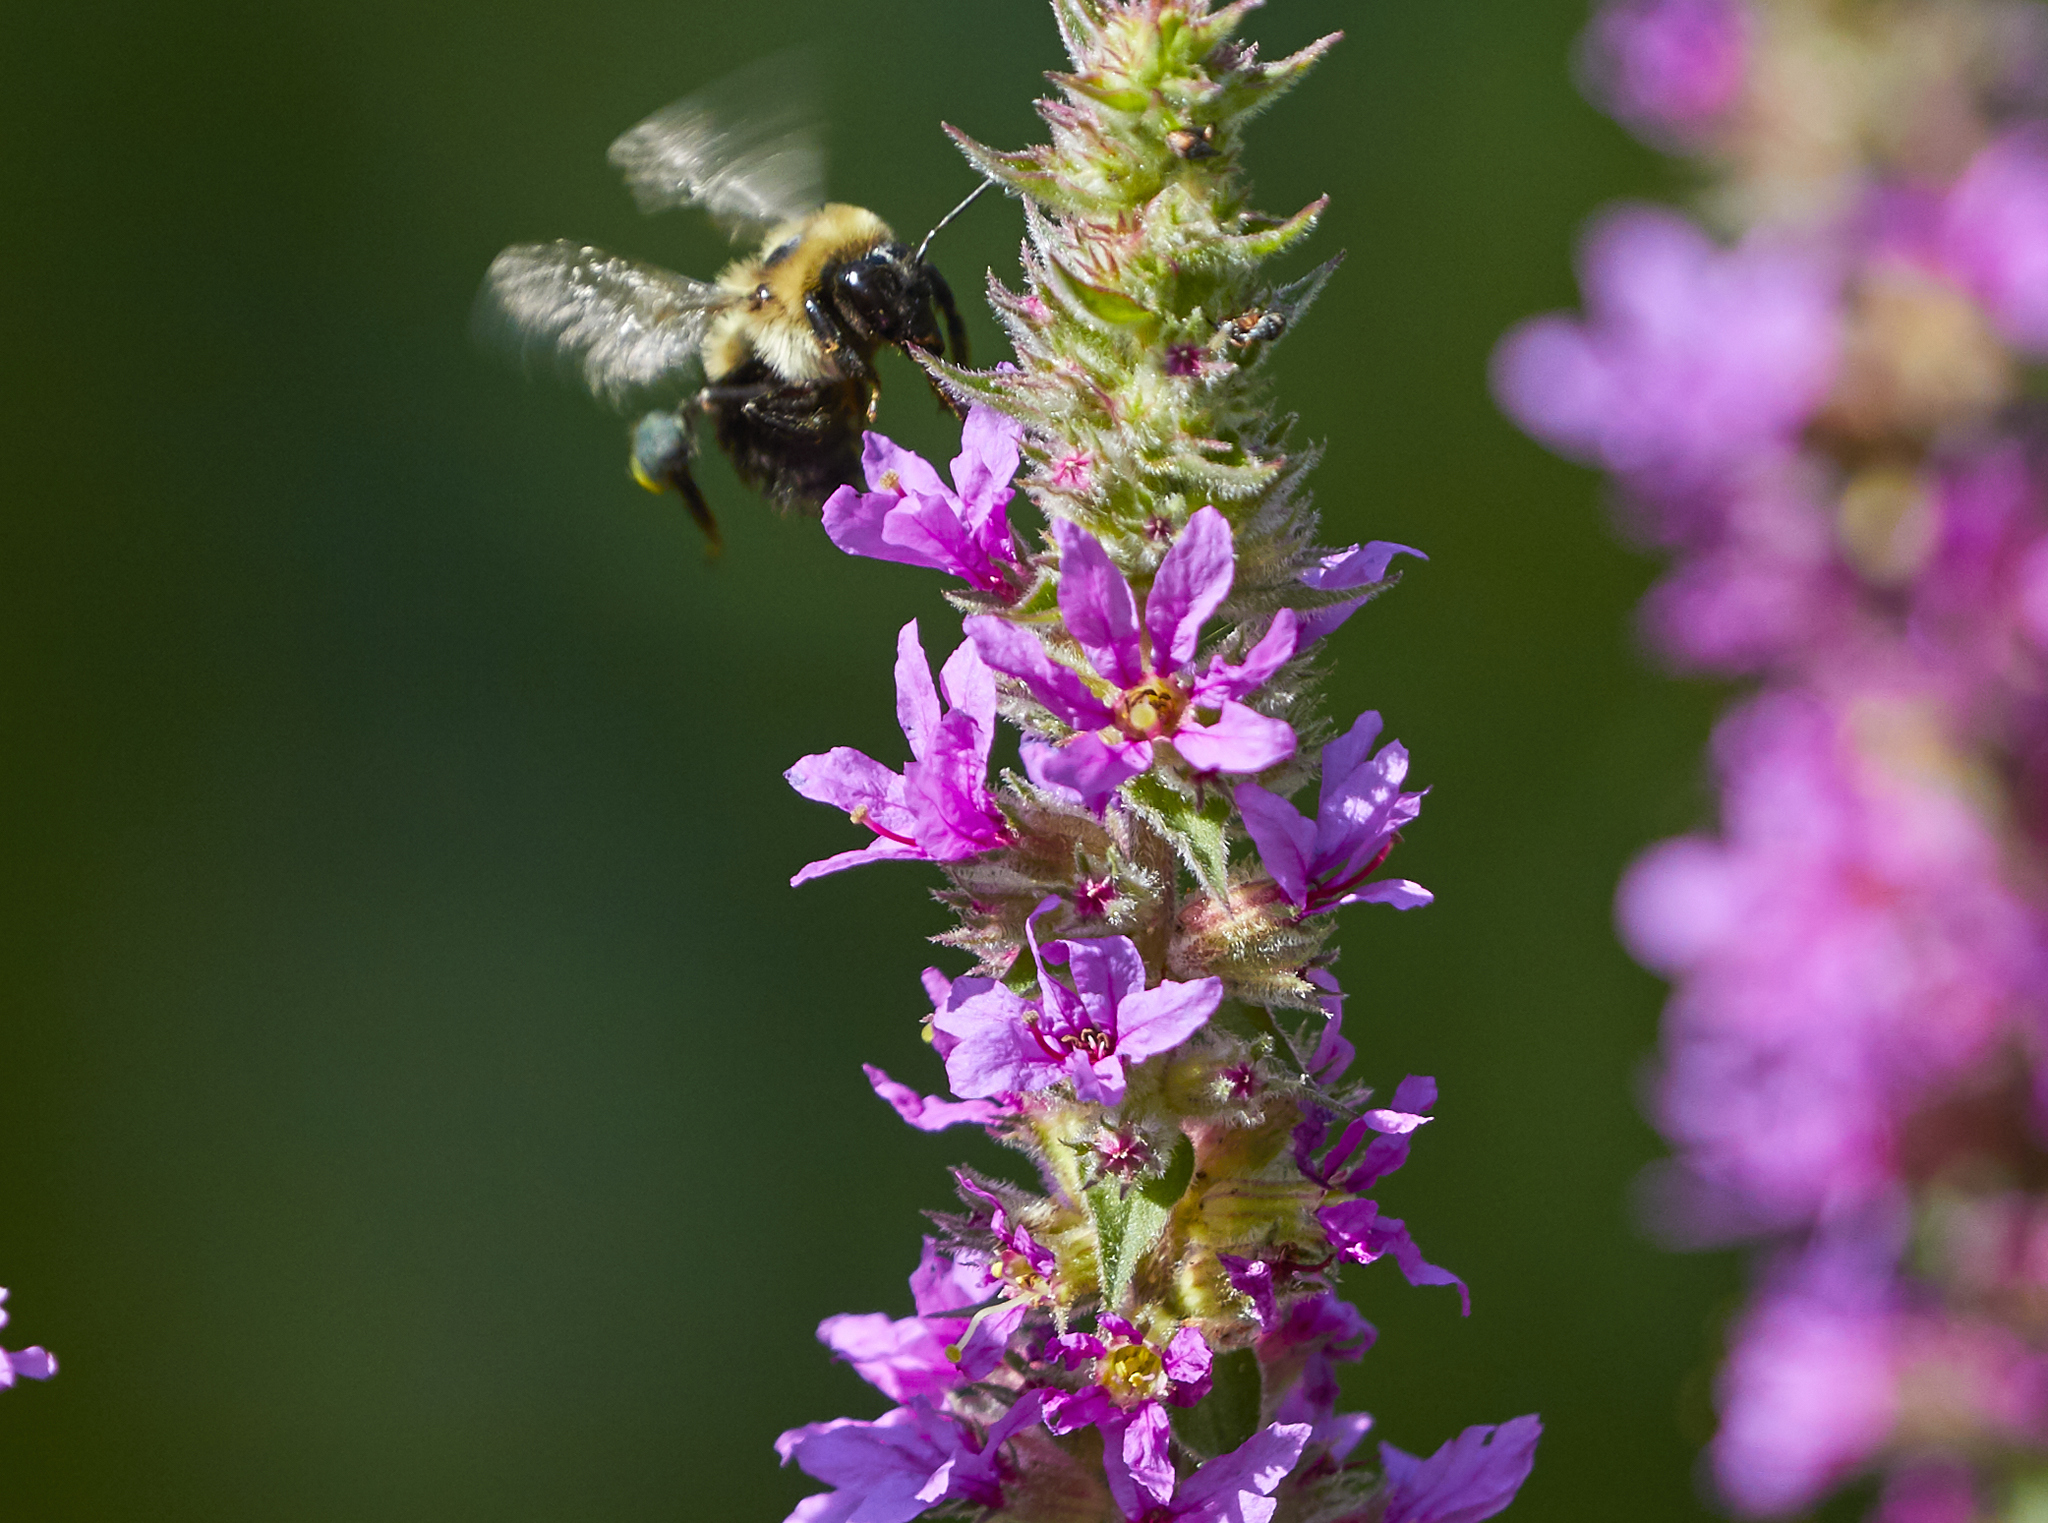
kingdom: Plantae
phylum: Tracheophyta
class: Magnoliopsida
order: Myrtales
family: Lythraceae
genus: Lythrum
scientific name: Lythrum salicaria
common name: Purple loosestrife
